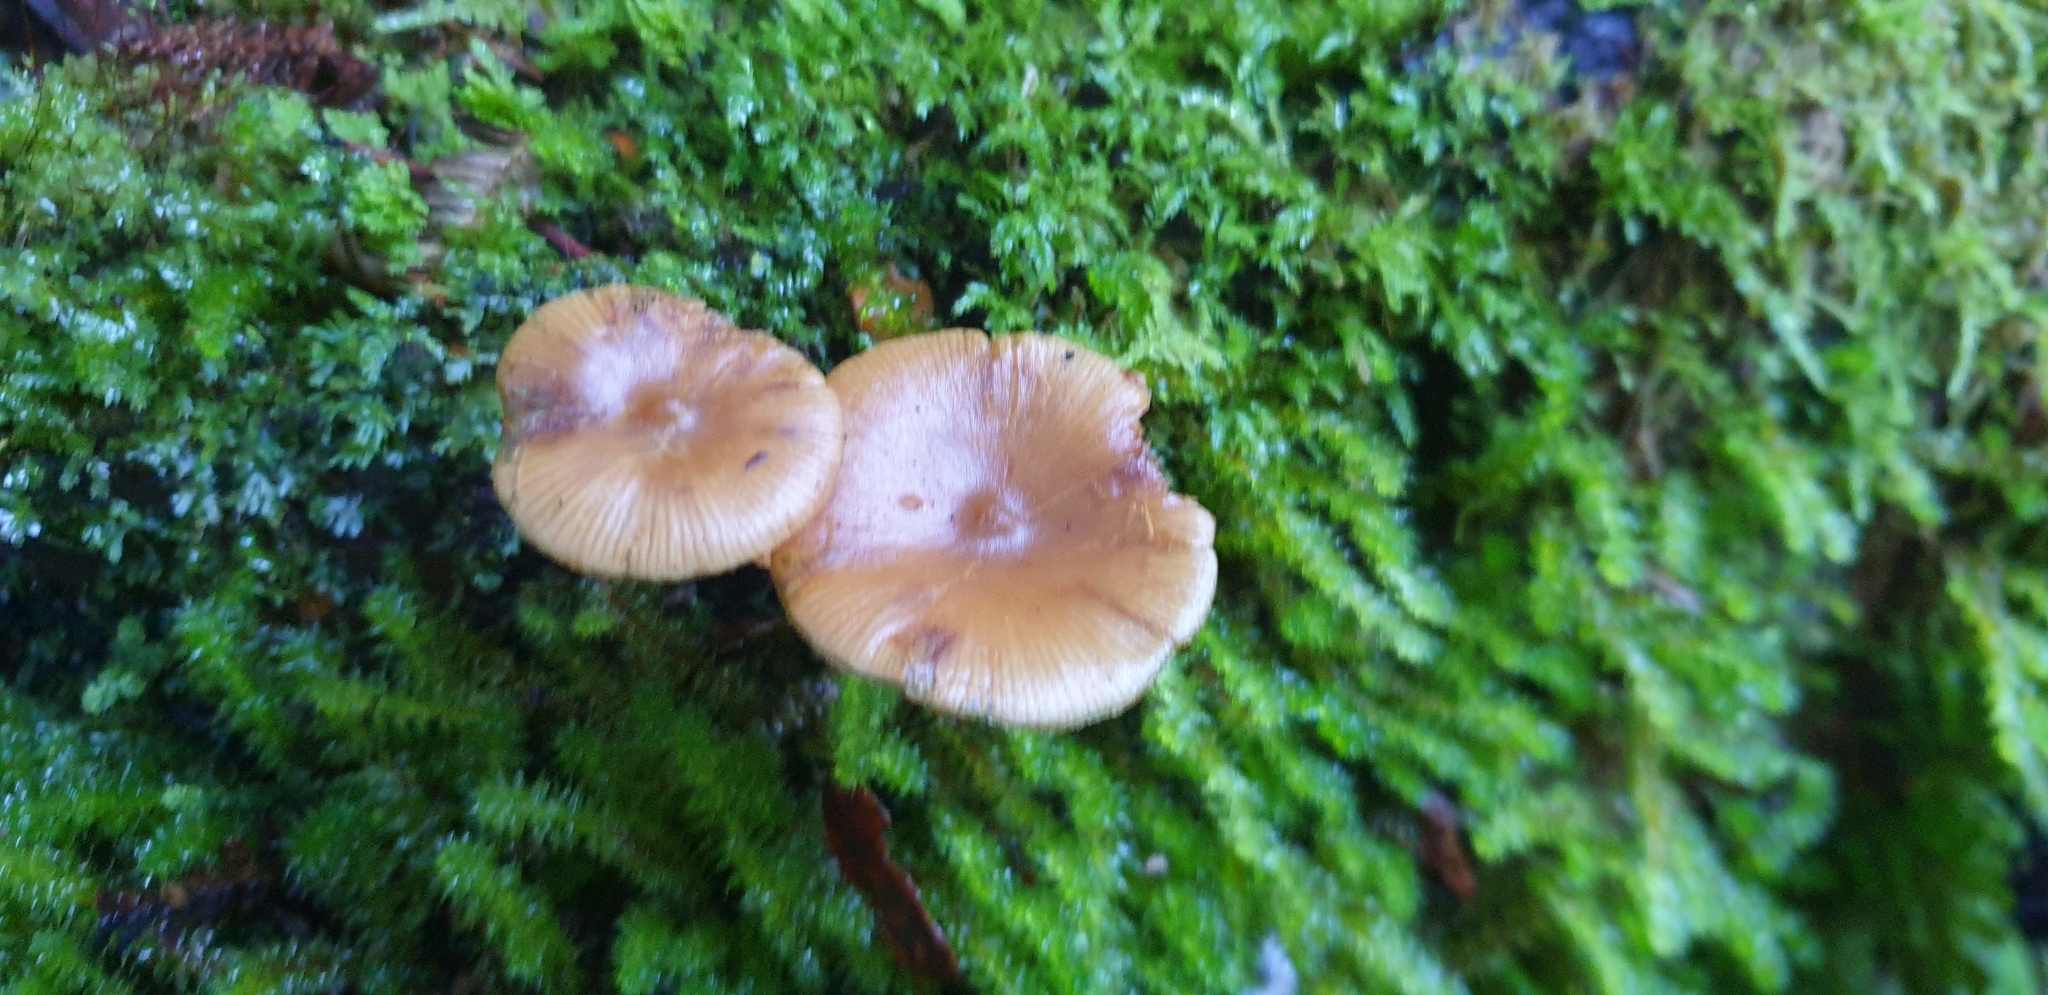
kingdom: Fungi
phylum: Basidiomycota
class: Agaricomycetes
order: Agaricales
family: Hymenogastraceae
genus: Galerina
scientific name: Galerina patagonica
